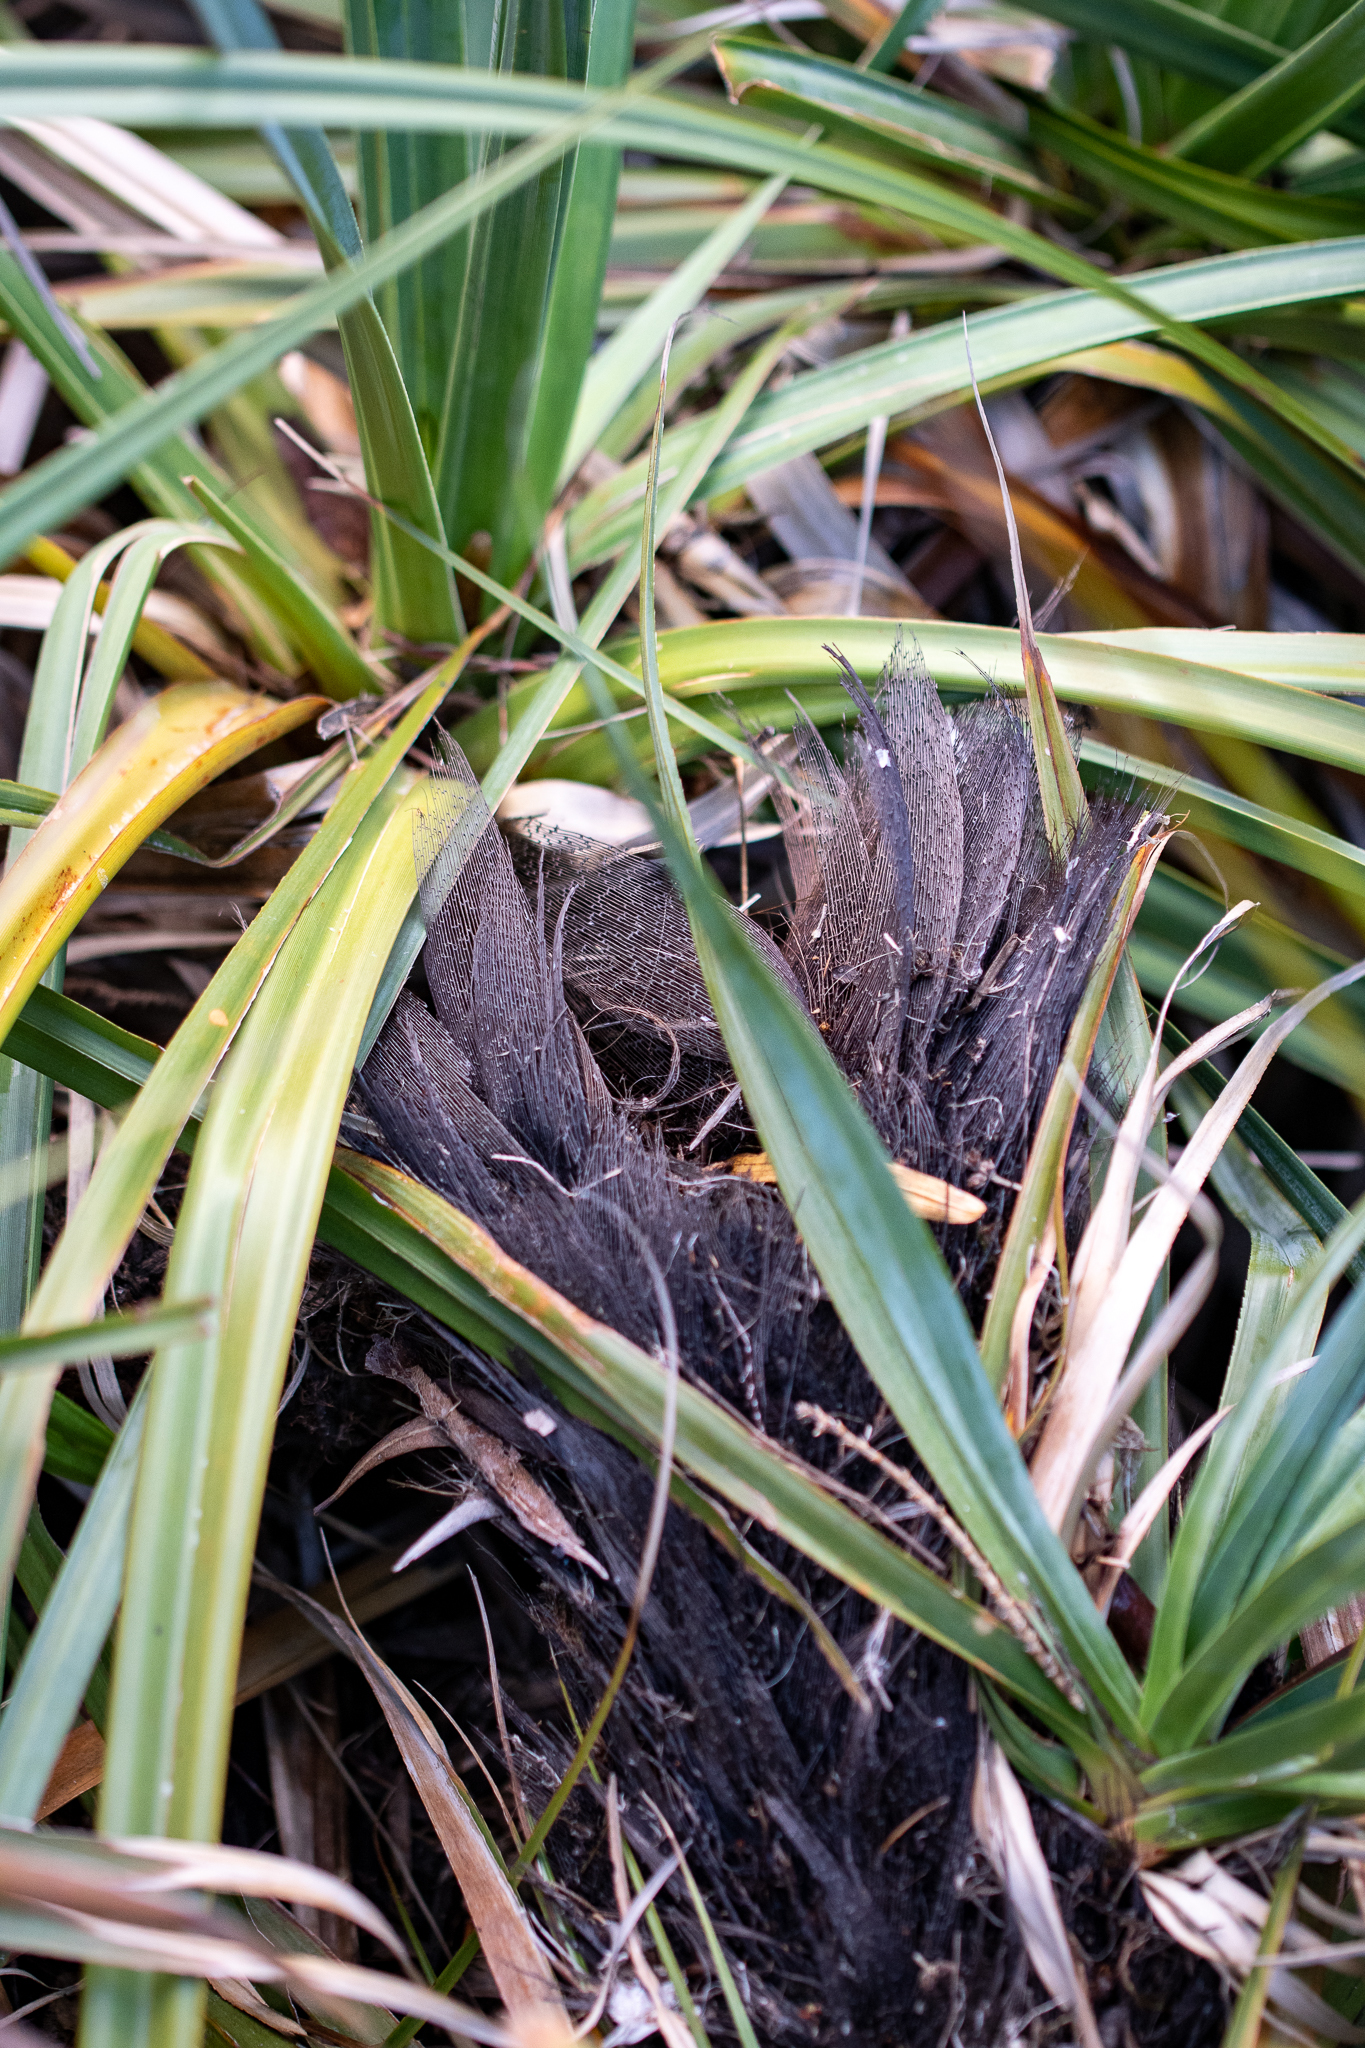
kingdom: Plantae
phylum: Tracheophyta
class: Liliopsida
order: Poales
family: Thurniaceae
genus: Prionium
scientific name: Prionium serratum
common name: Palmiet
